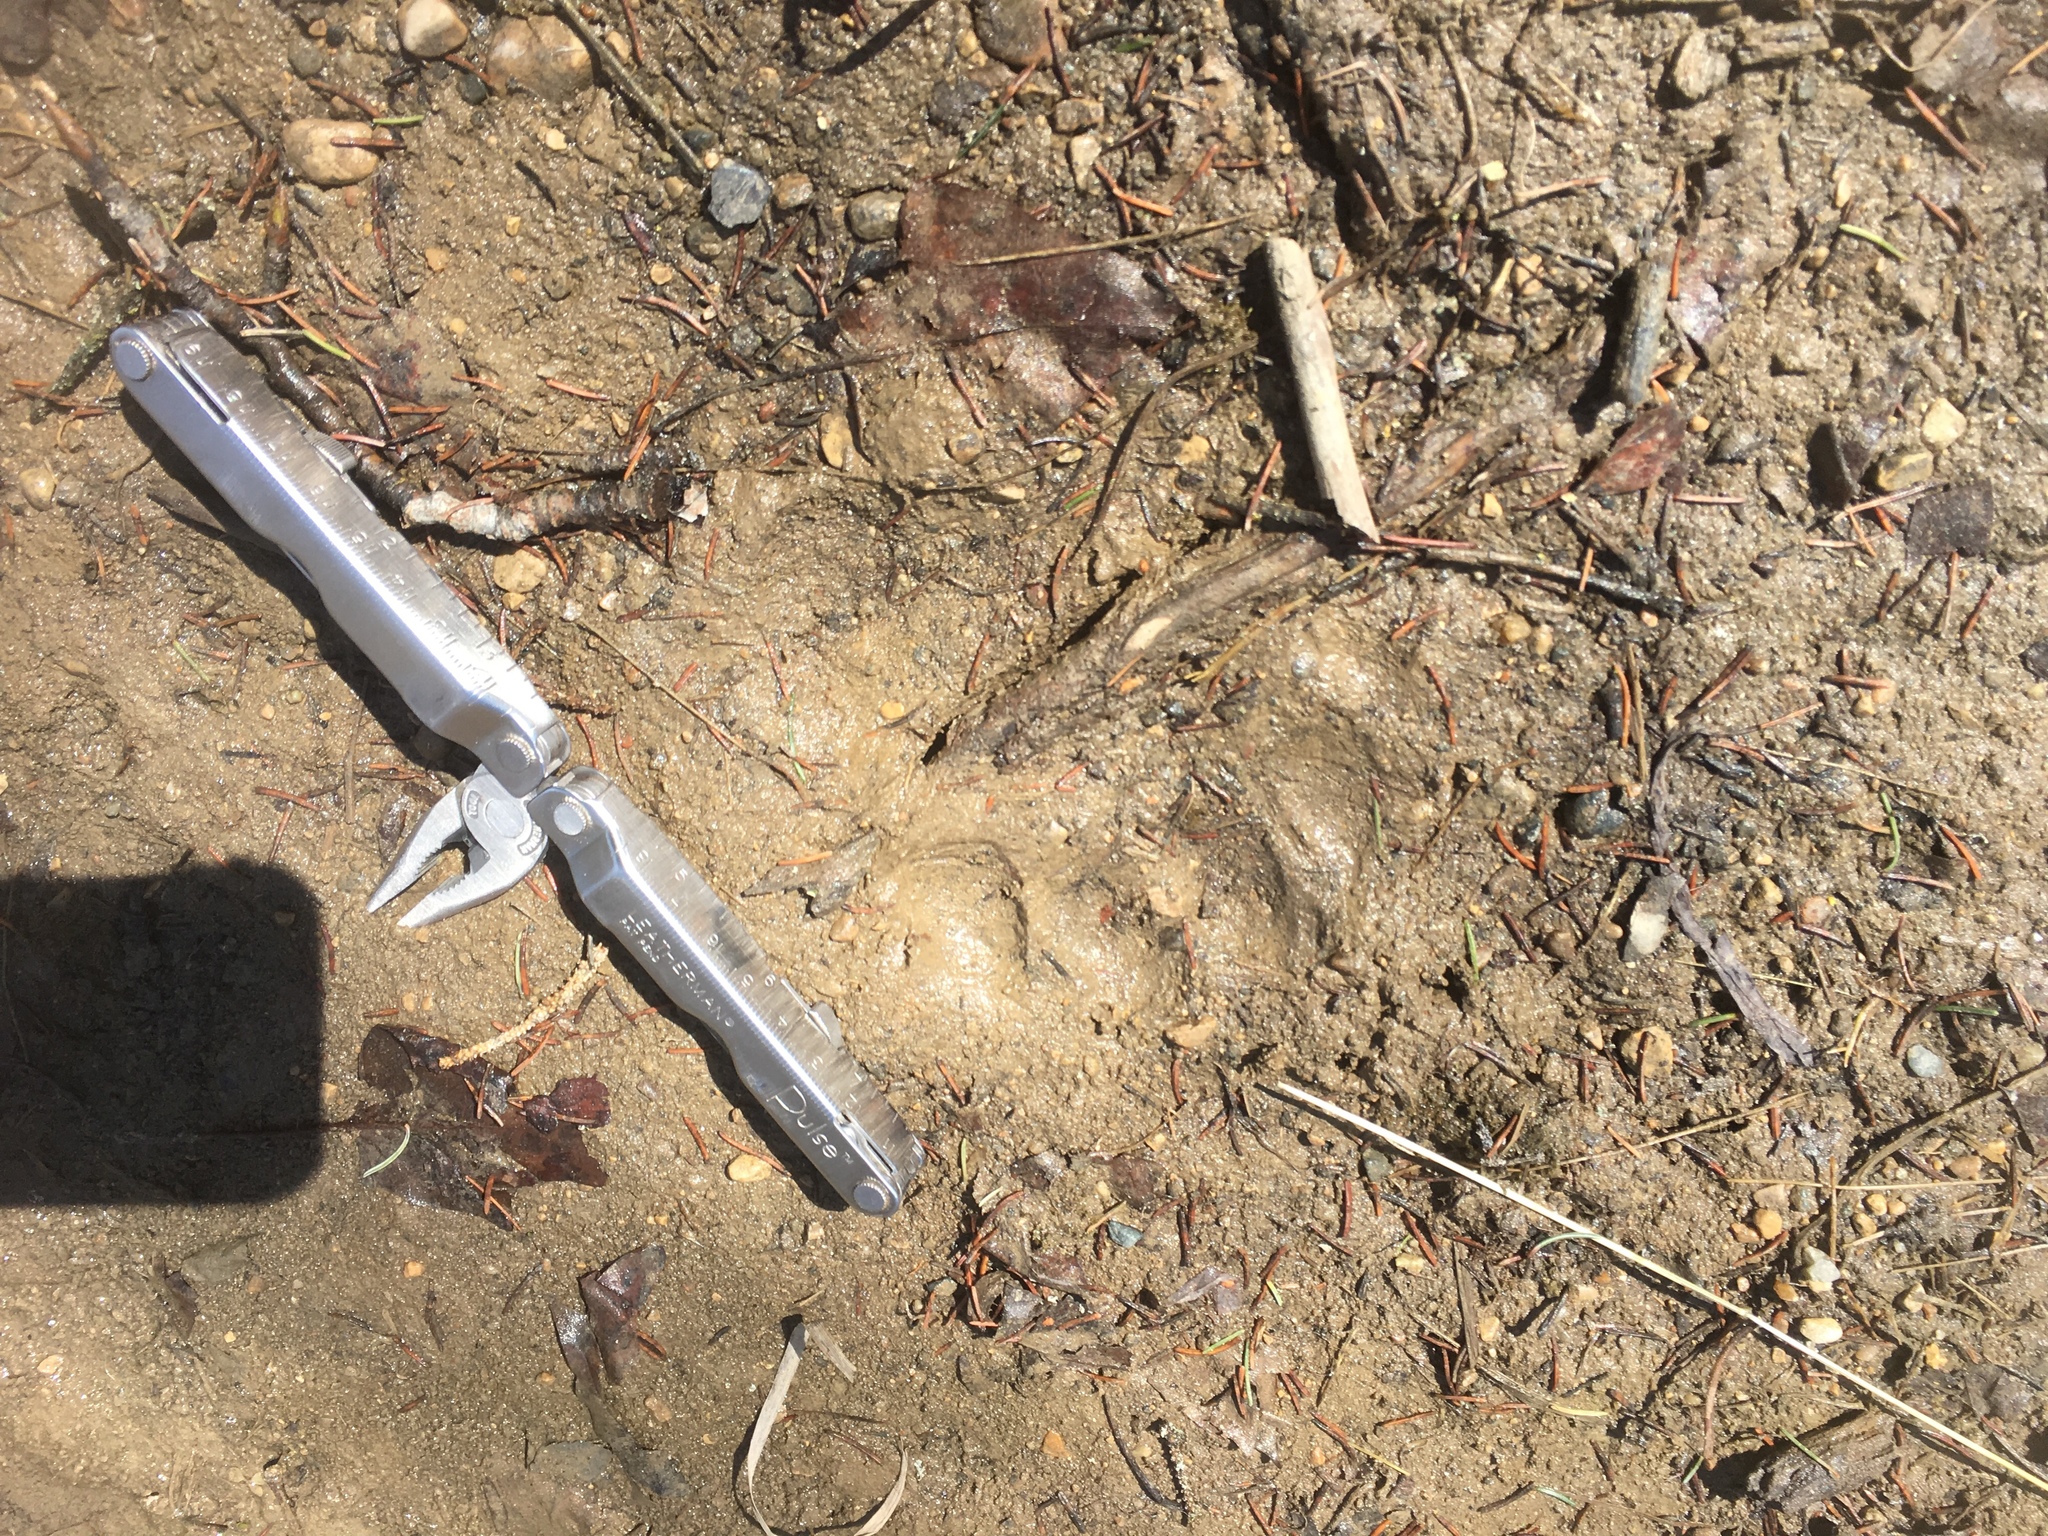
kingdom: Animalia
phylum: Chordata
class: Mammalia
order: Carnivora
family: Ursidae
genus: Ursus
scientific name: Ursus americanus
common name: American black bear
